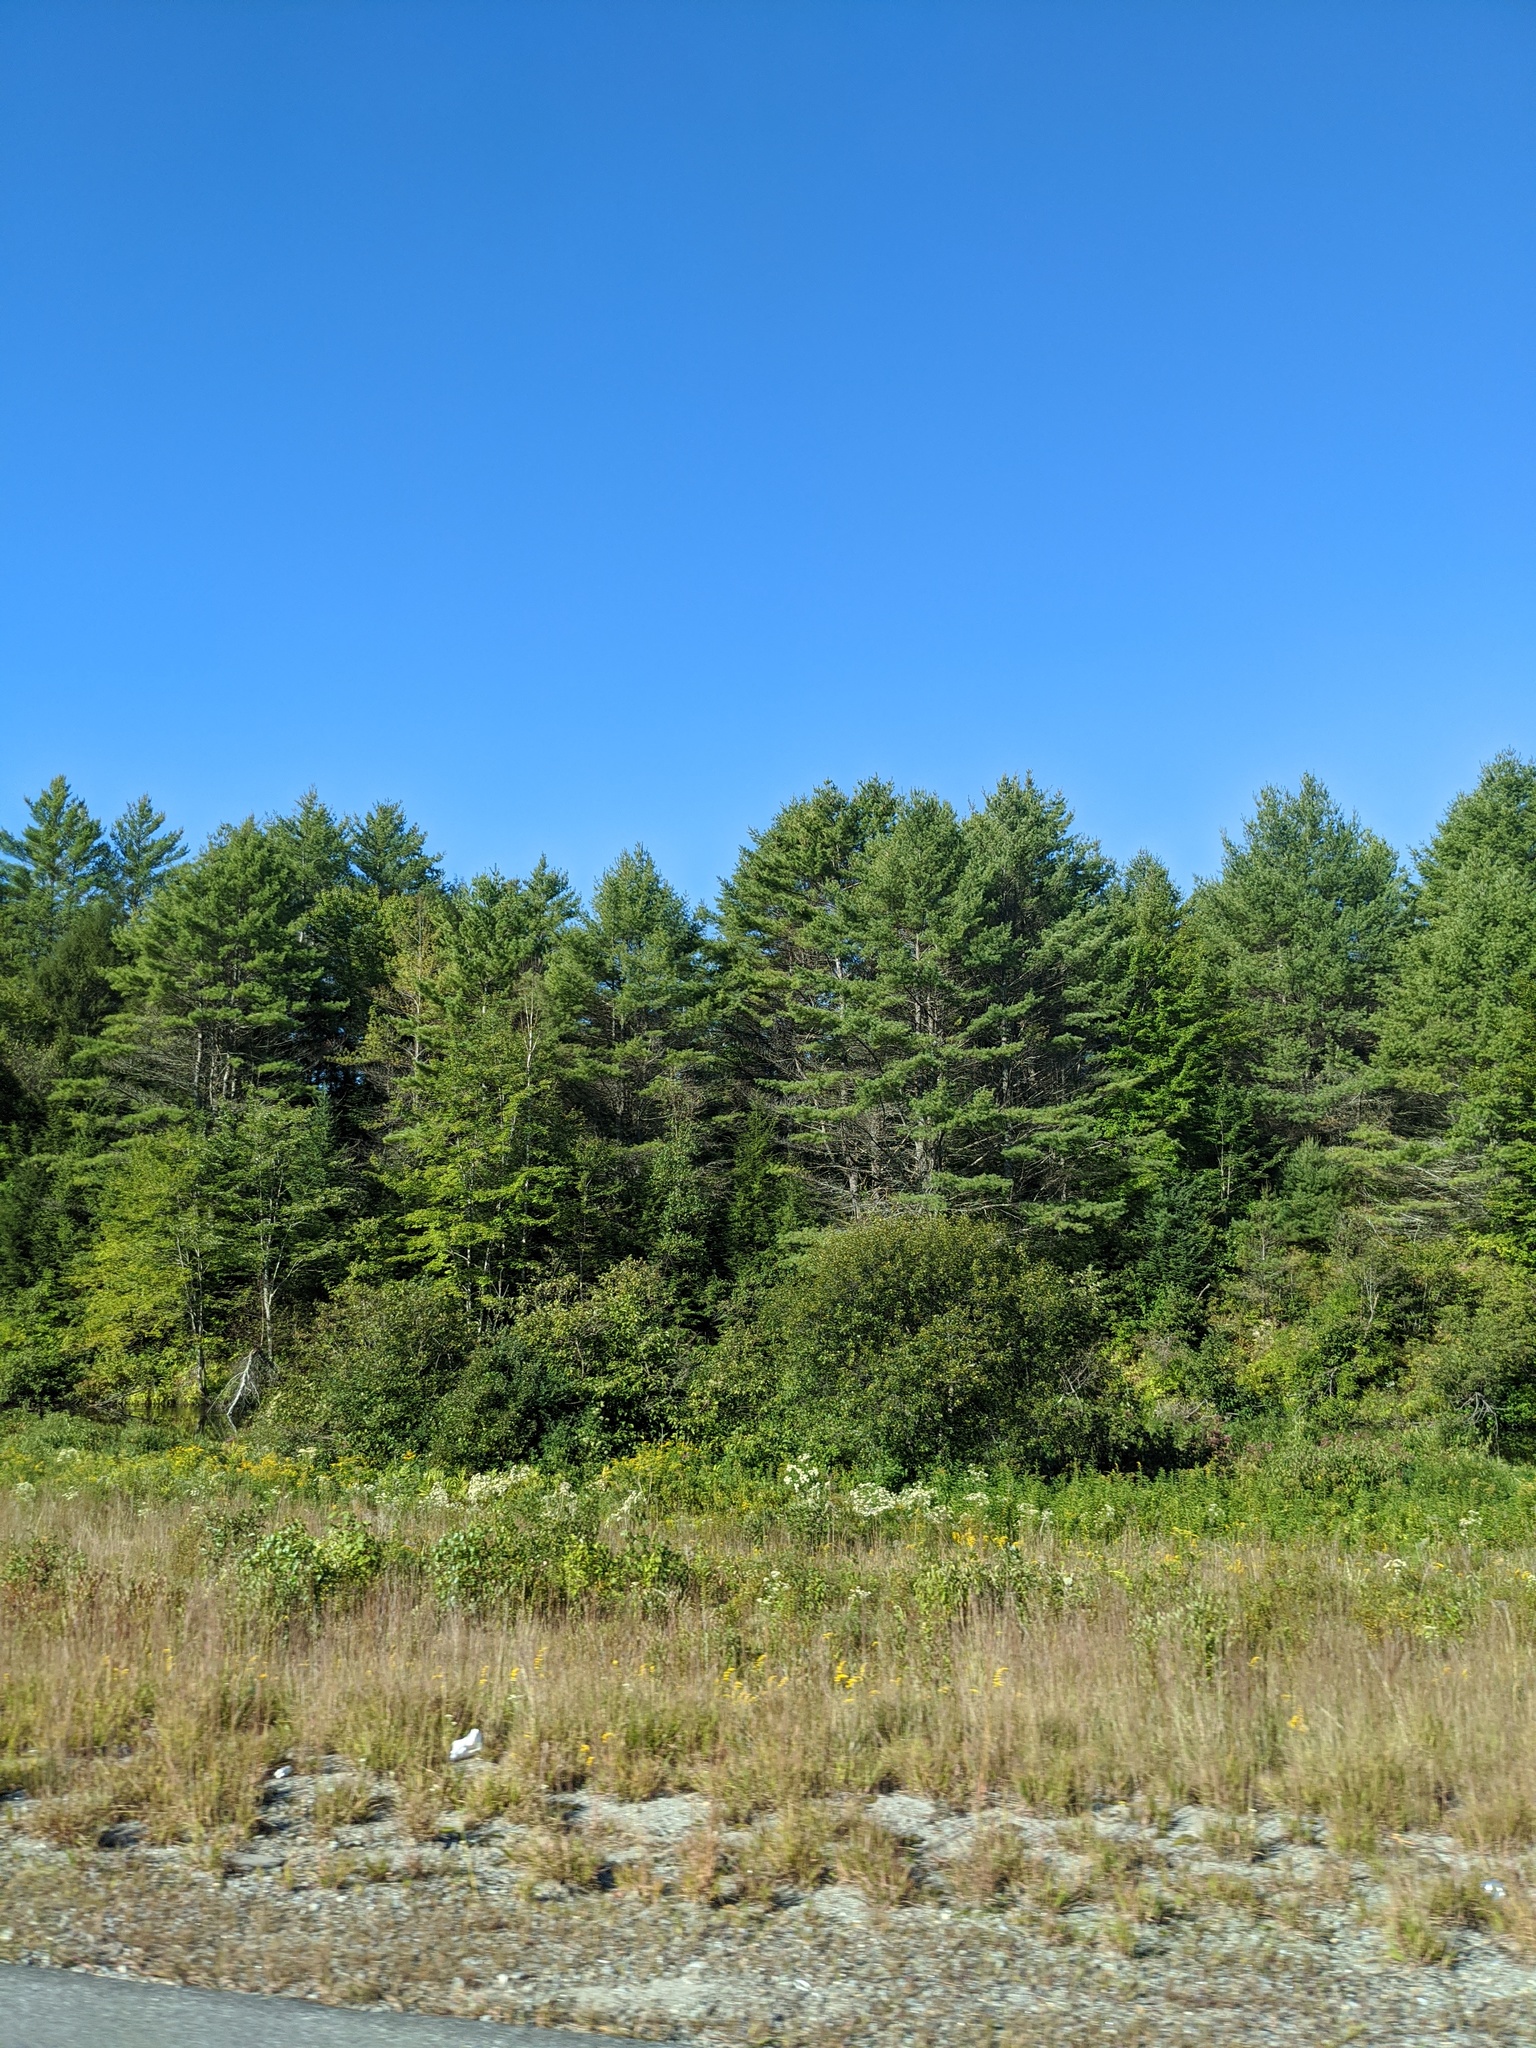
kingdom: Plantae
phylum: Tracheophyta
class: Pinopsida
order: Pinales
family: Pinaceae
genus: Pinus
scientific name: Pinus strobus
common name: Weymouth pine
